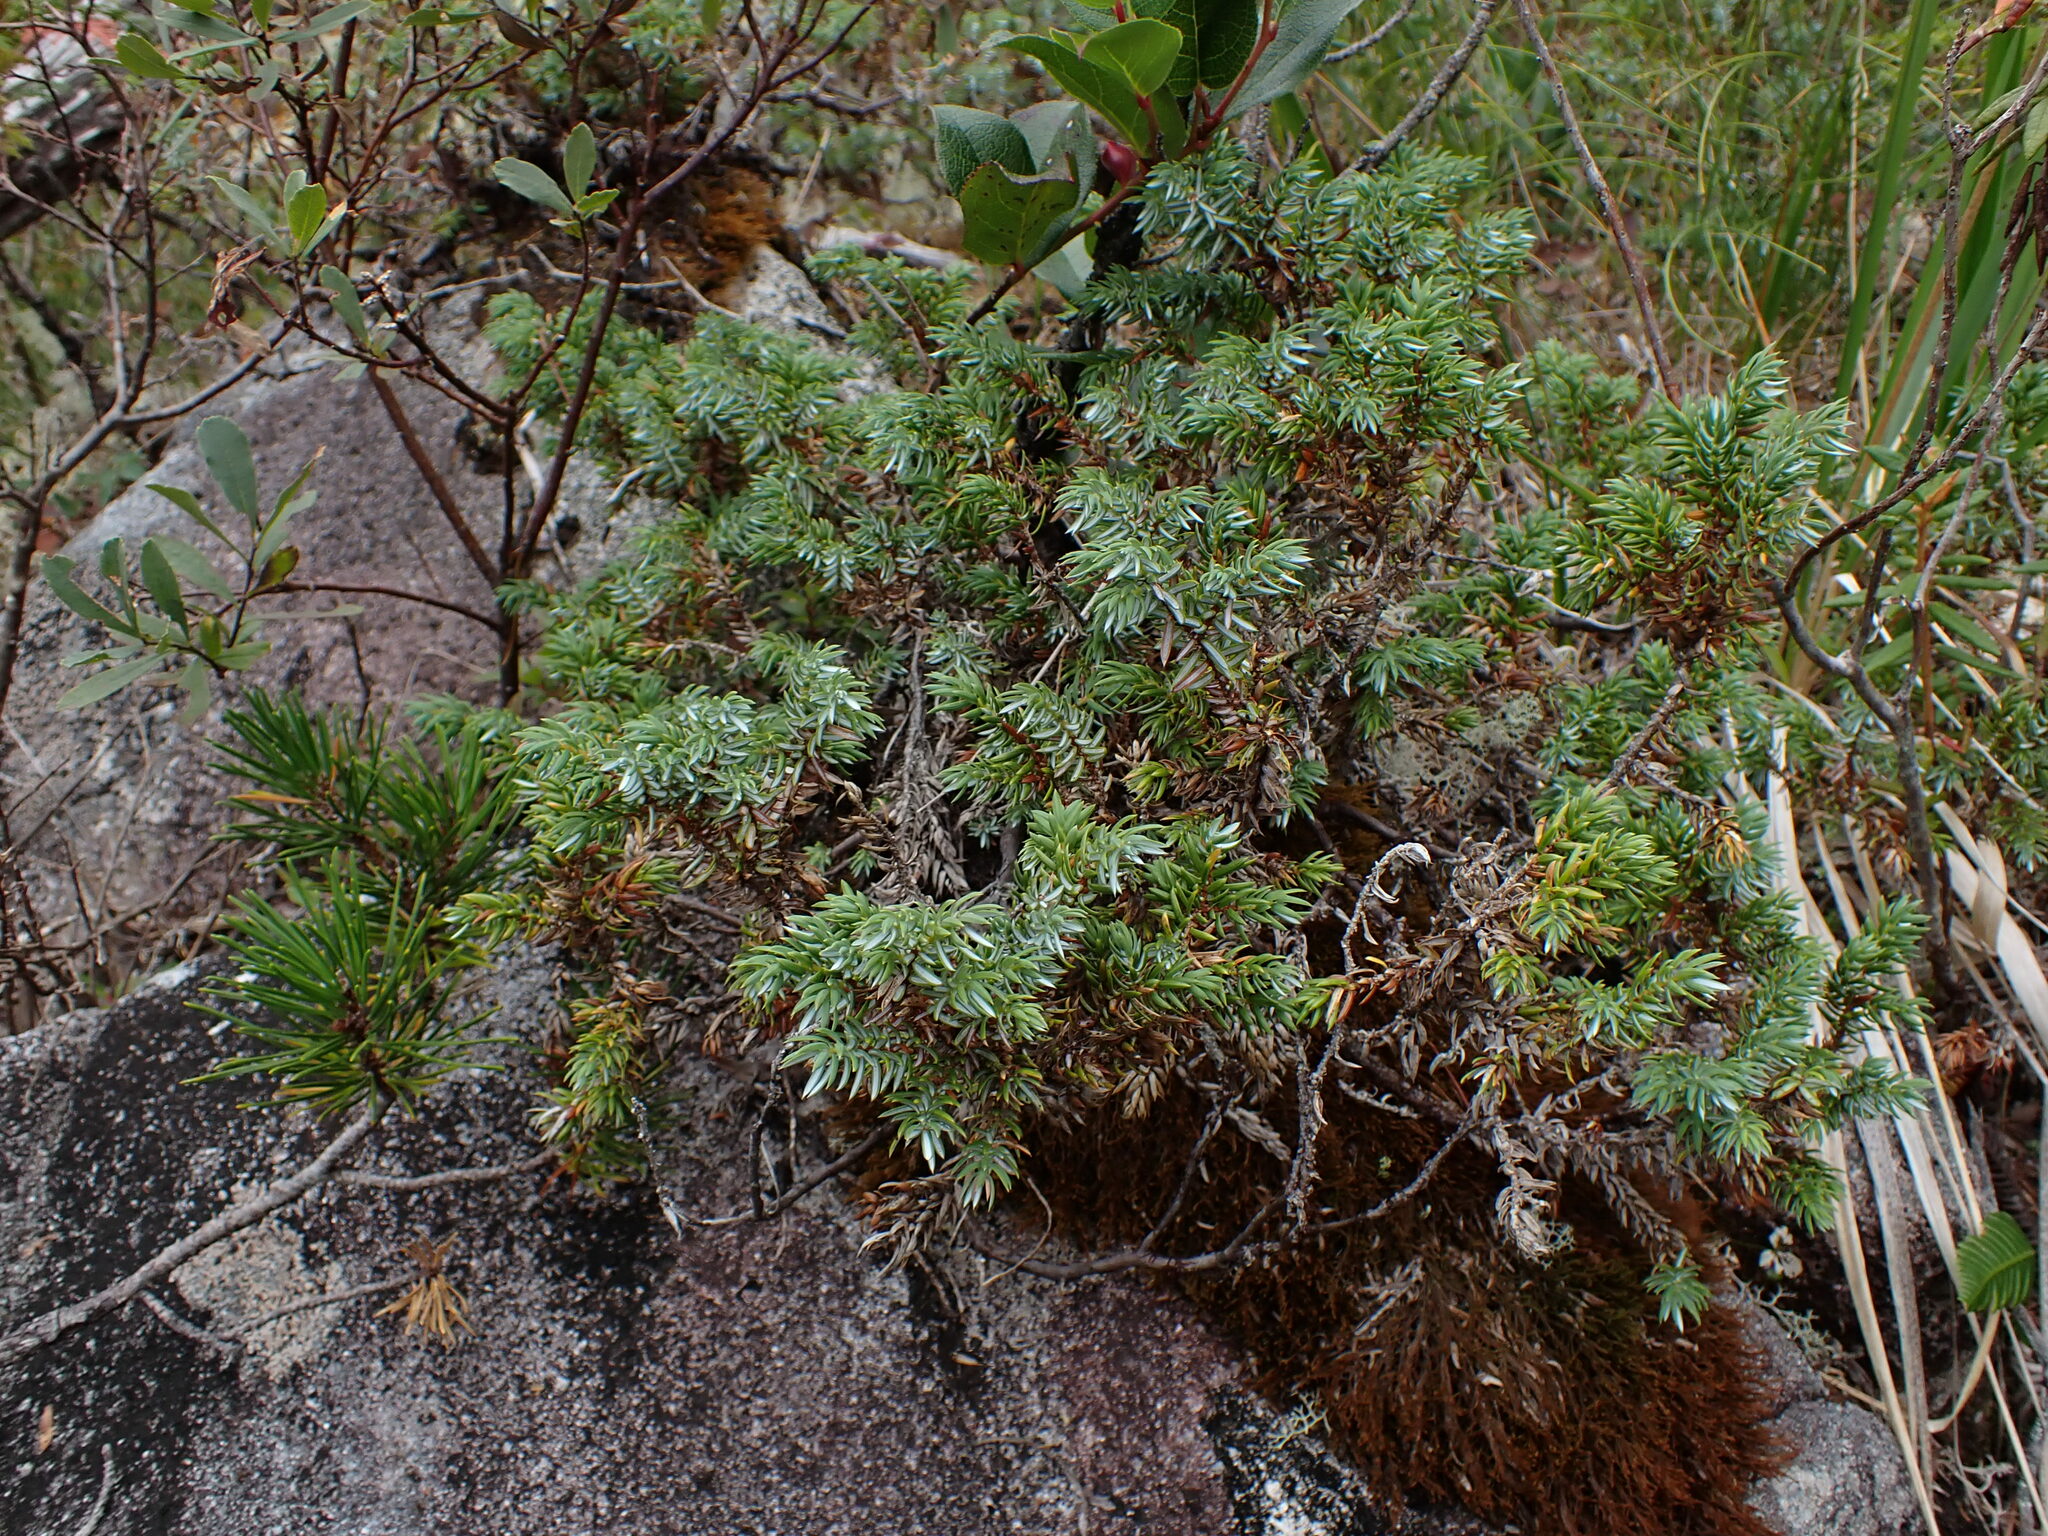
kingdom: Plantae
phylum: Tracheophyta
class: Pinopsida
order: Pinales
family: Cupressaceae
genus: Juniperus
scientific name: Juniperus communis
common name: Common juniper
